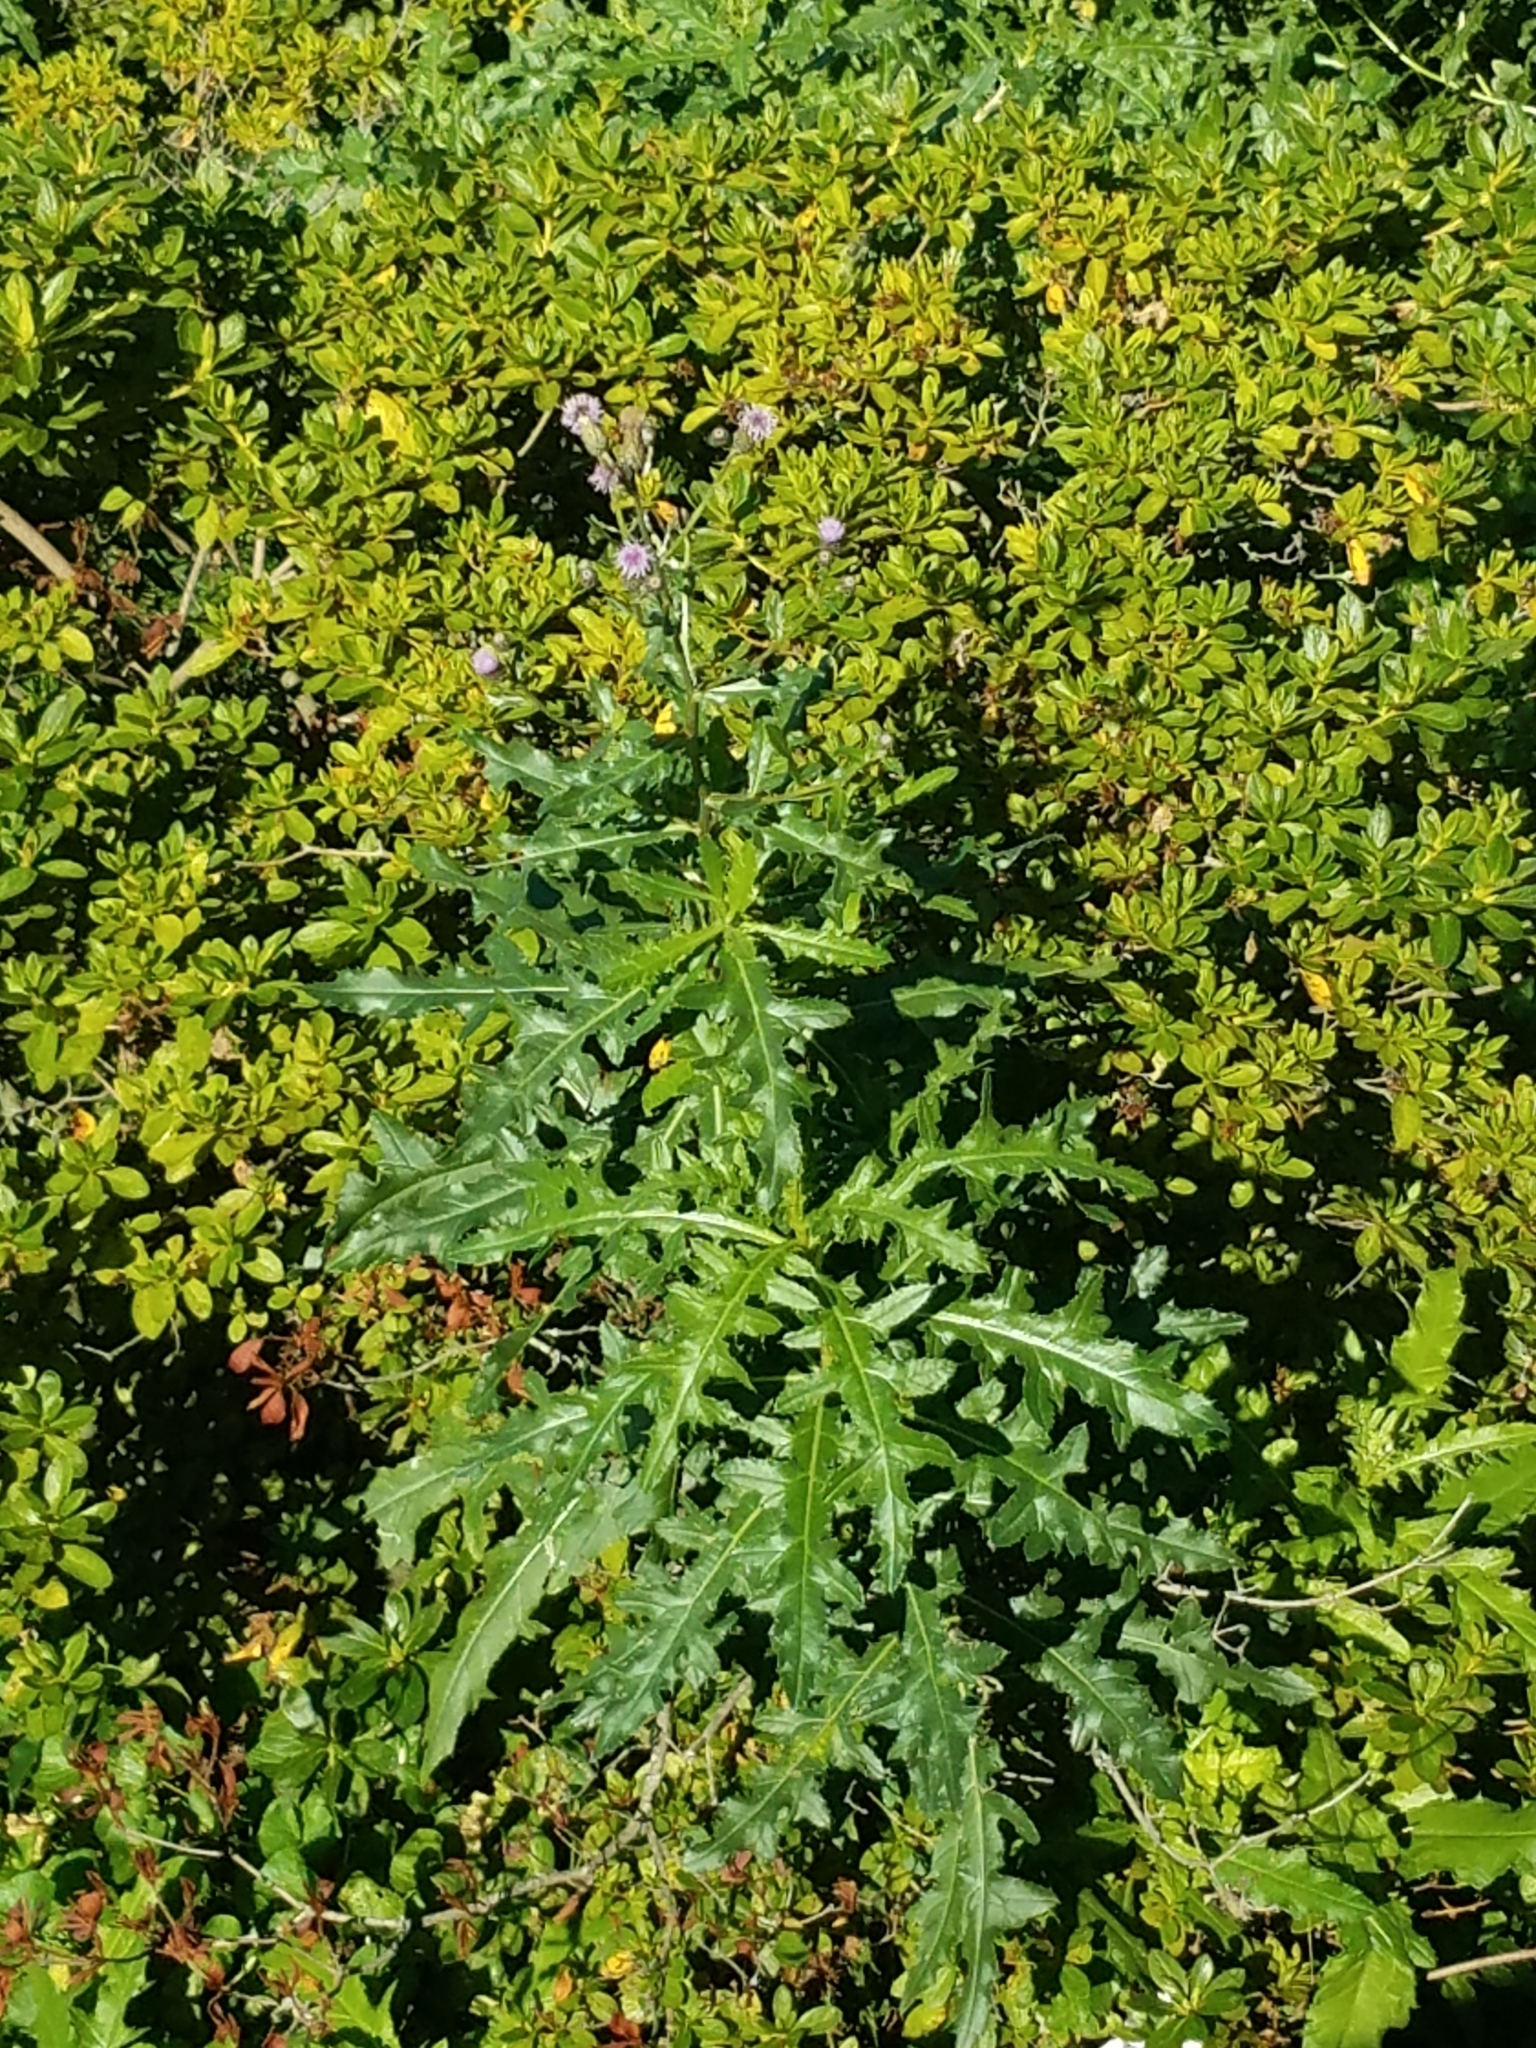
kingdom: Plantae
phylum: Tracheophyta
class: Magnoliopsida
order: Asterales
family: Asteraceae
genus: Cirsium
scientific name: Cirsium arvense
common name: Creeping thistle
